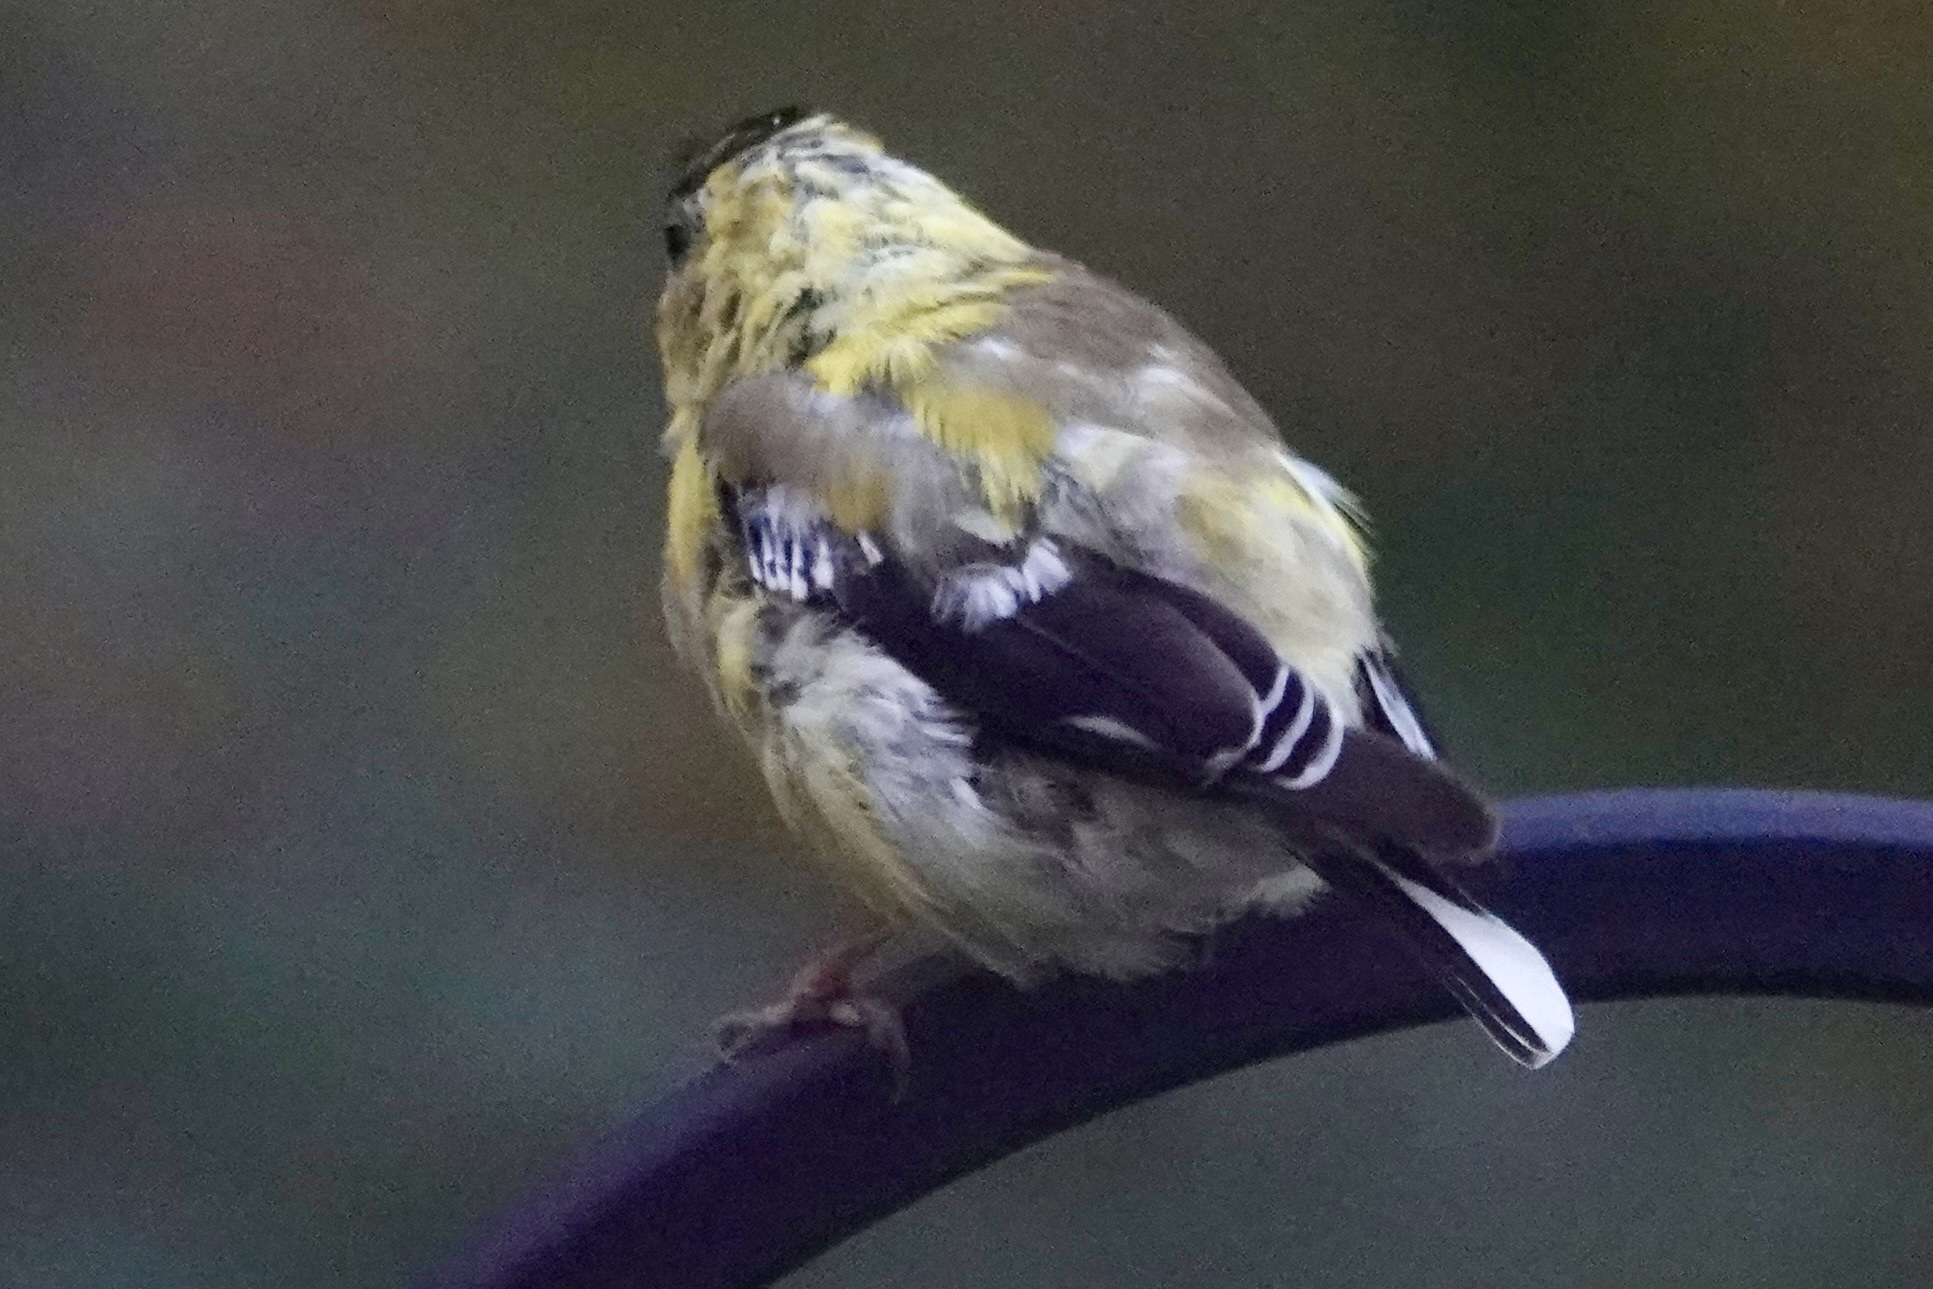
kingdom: Animalia
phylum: Chordata
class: Aves
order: Passeriformes
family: Fringillidae
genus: Spinus
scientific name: Spinus tristis
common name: American goldfinch
